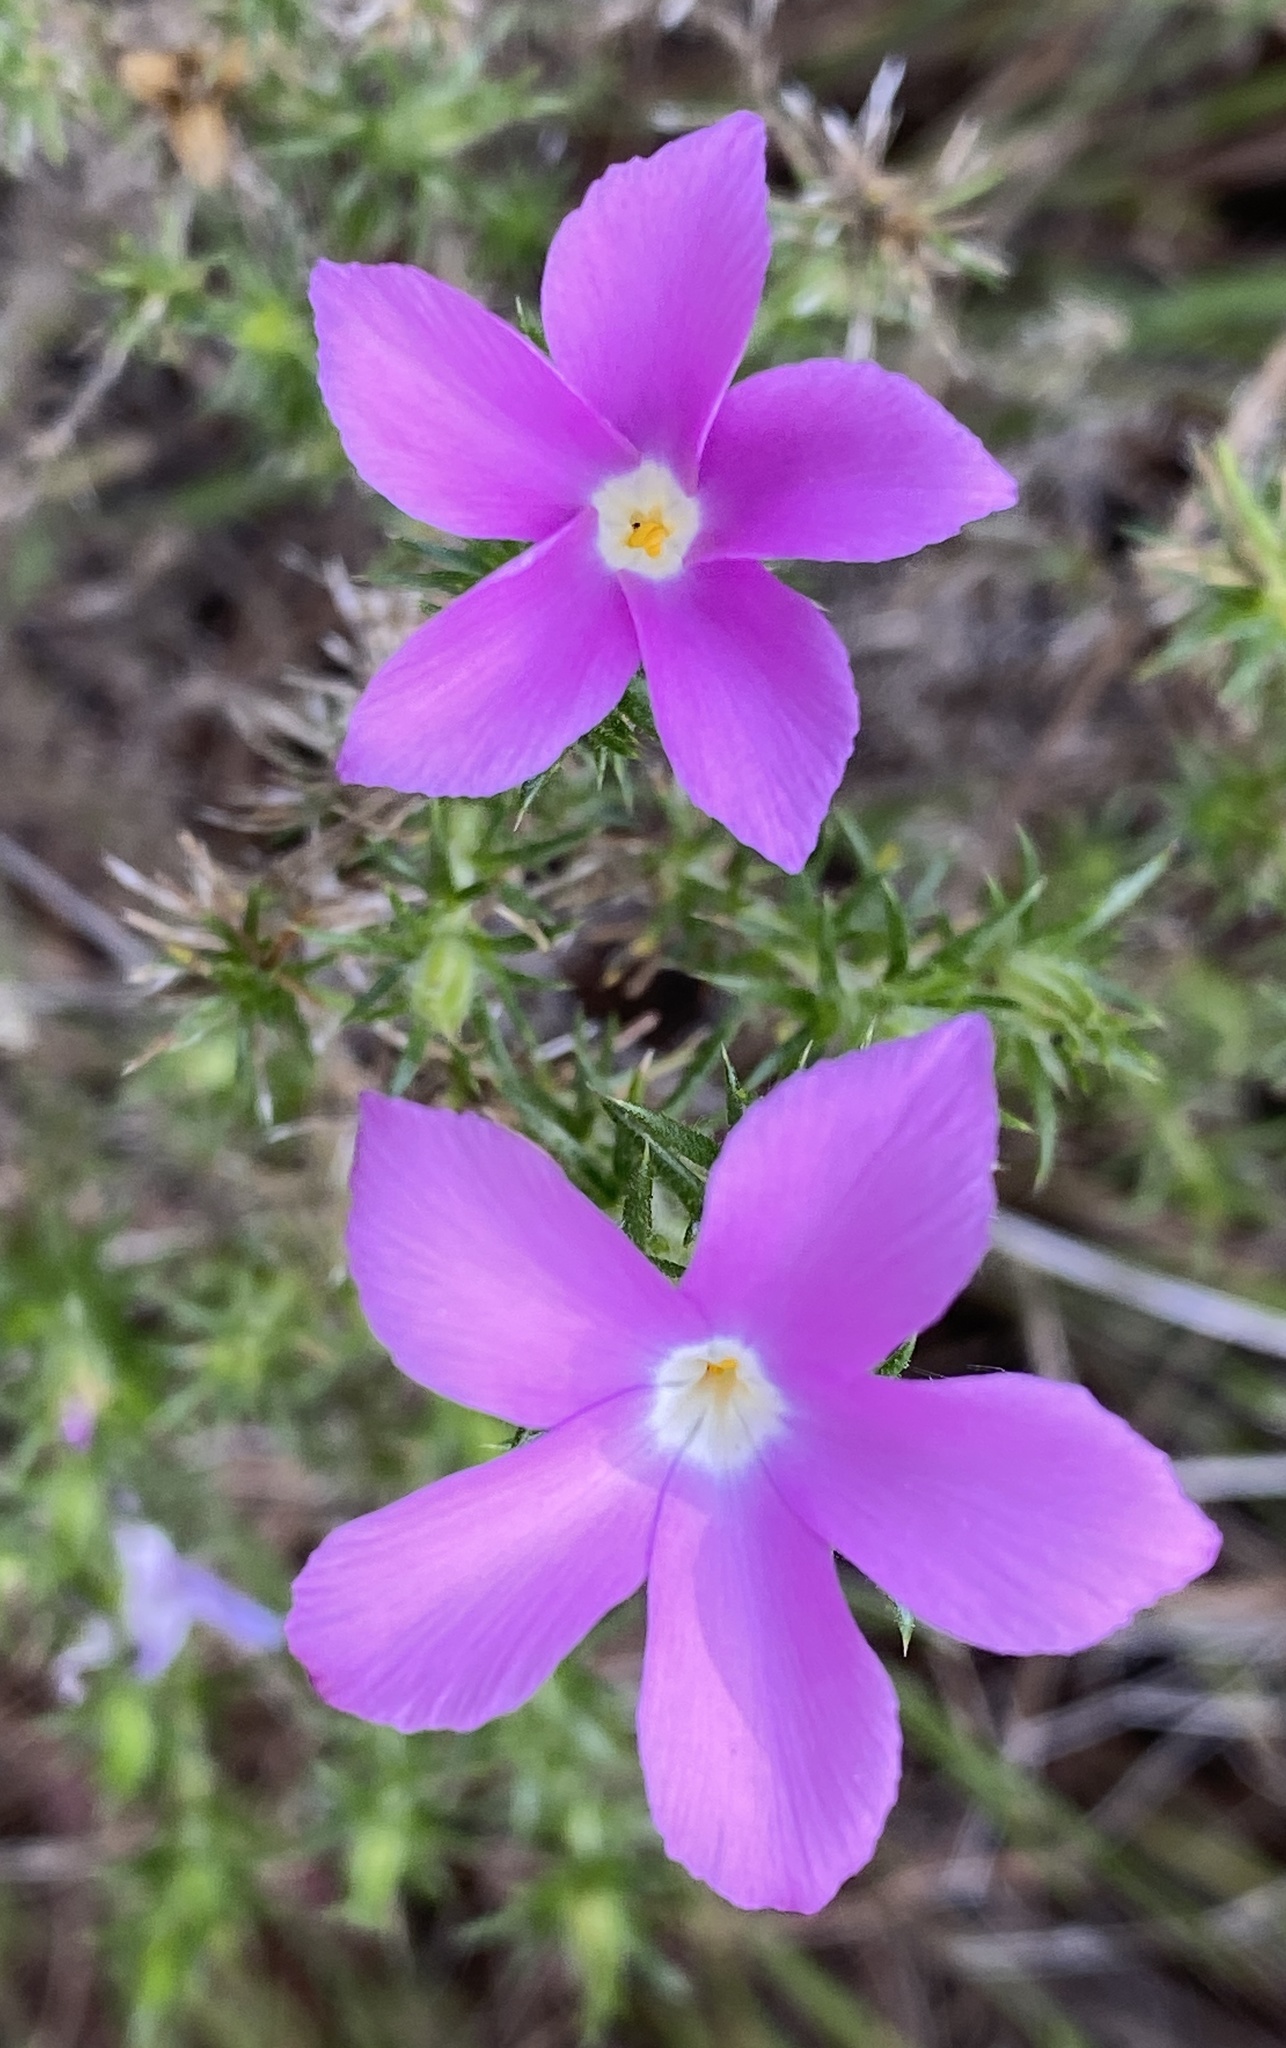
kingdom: Plantae
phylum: Tracheophyta
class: Magnoliopsida
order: Ericales
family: Polemoniaceae
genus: Linanthus
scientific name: Linanthus californicus
